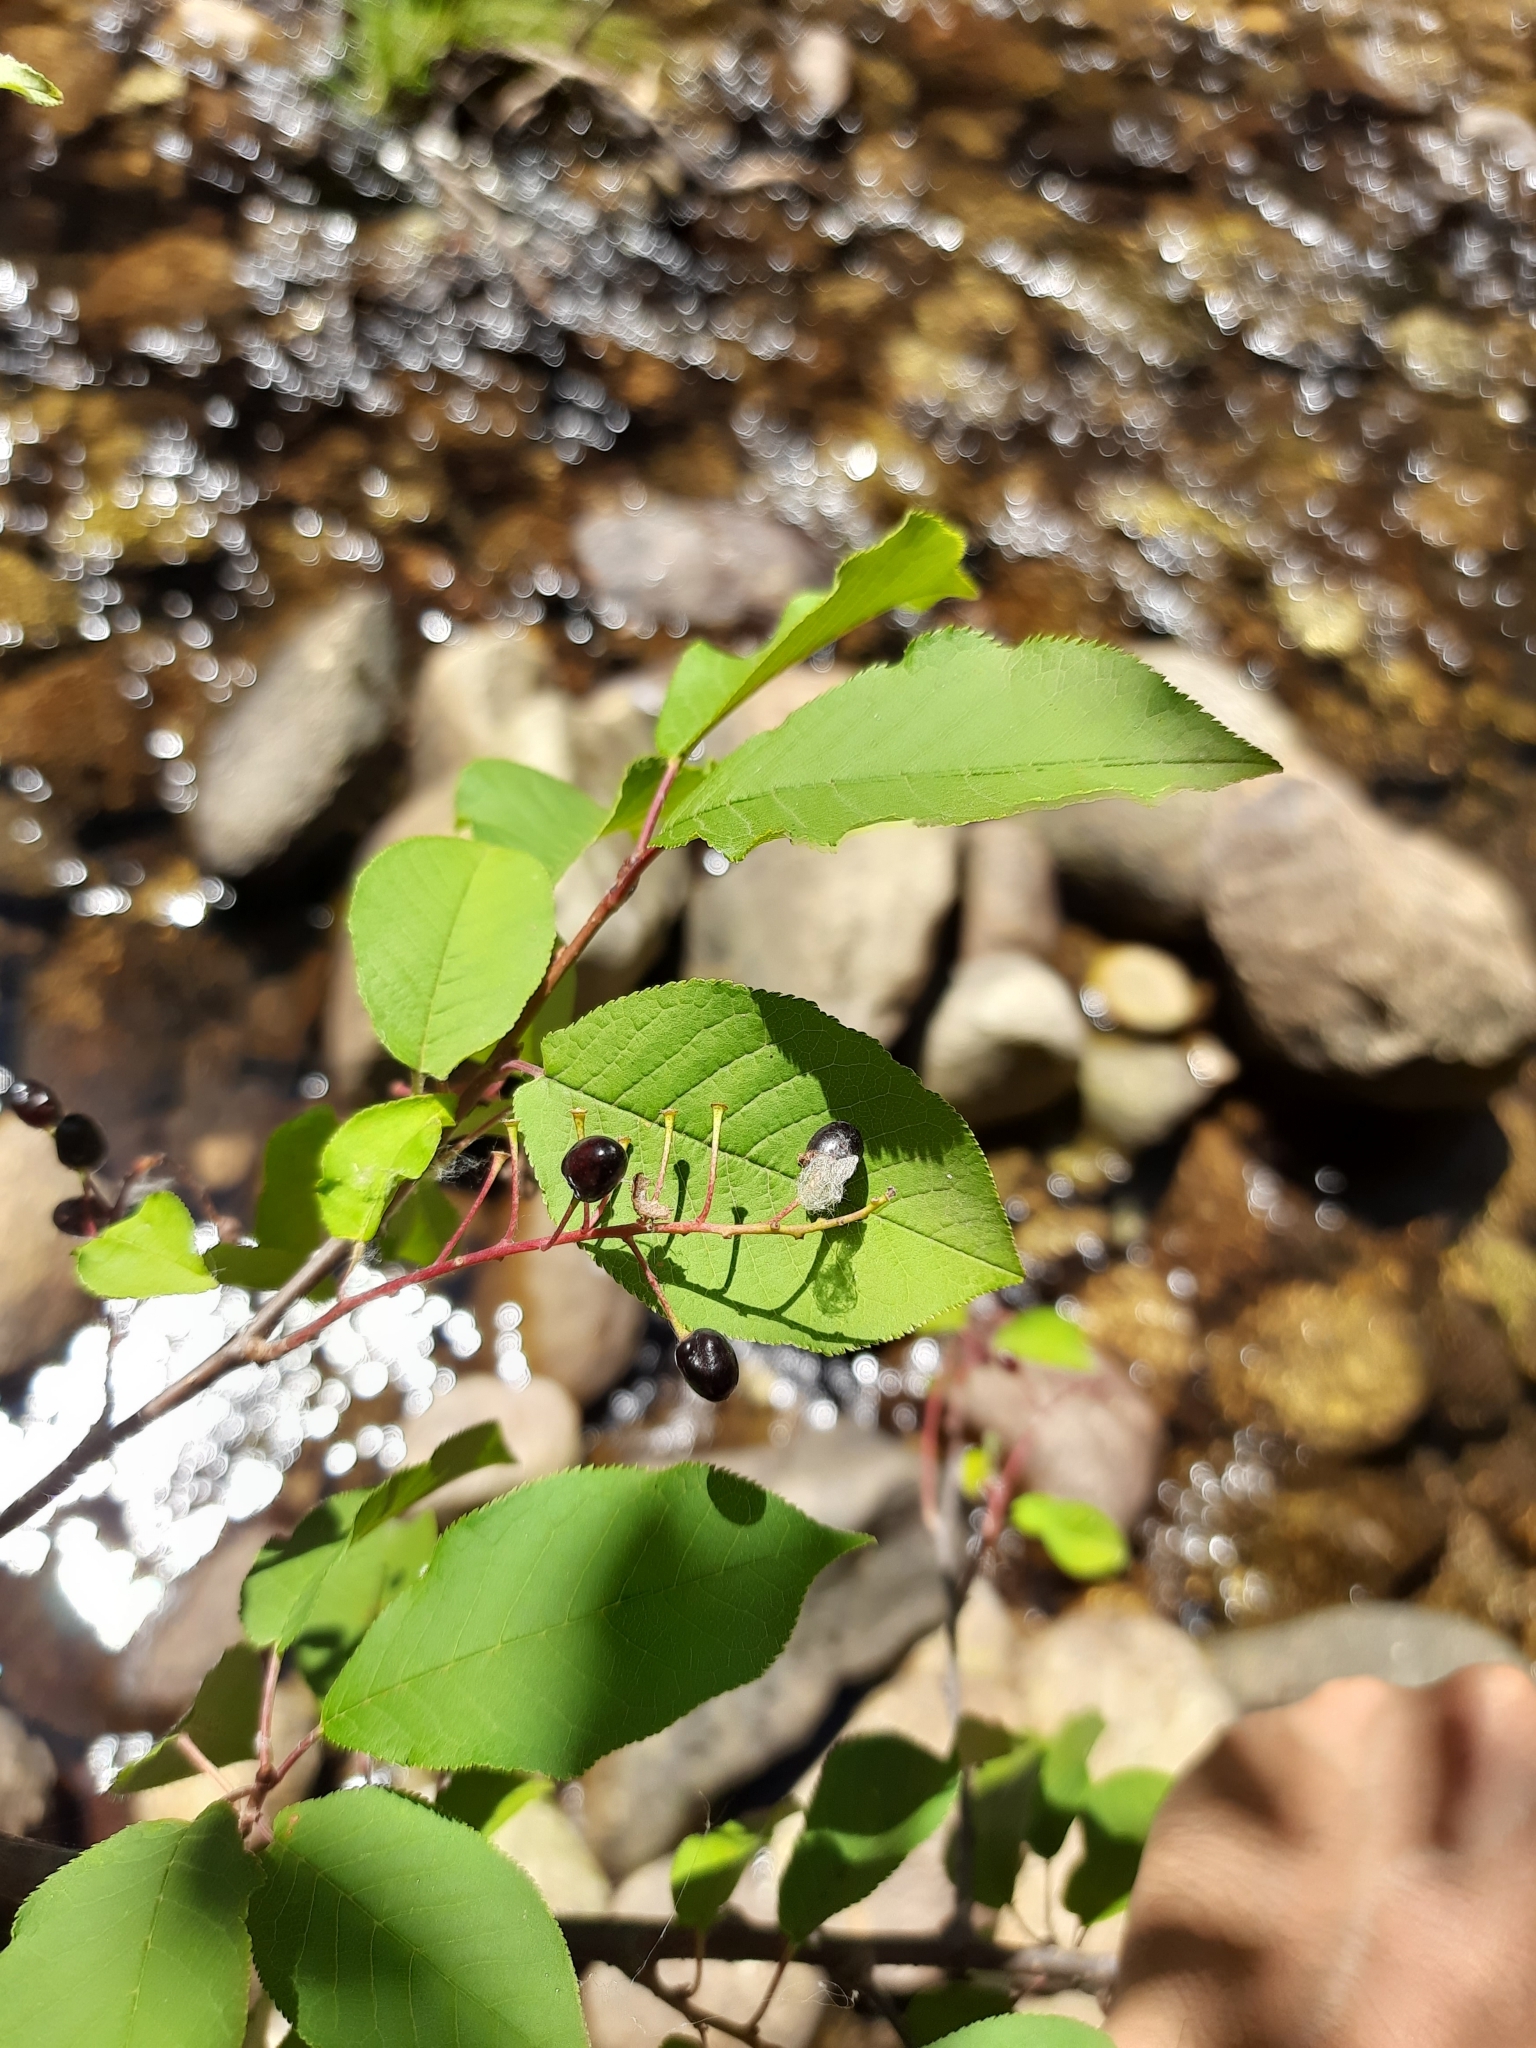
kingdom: Plantae
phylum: Tracheophyta
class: Magnoliopsida
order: Rosales
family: Rosaceae
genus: Prunus
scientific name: Prunus padus
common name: Bird cherry
